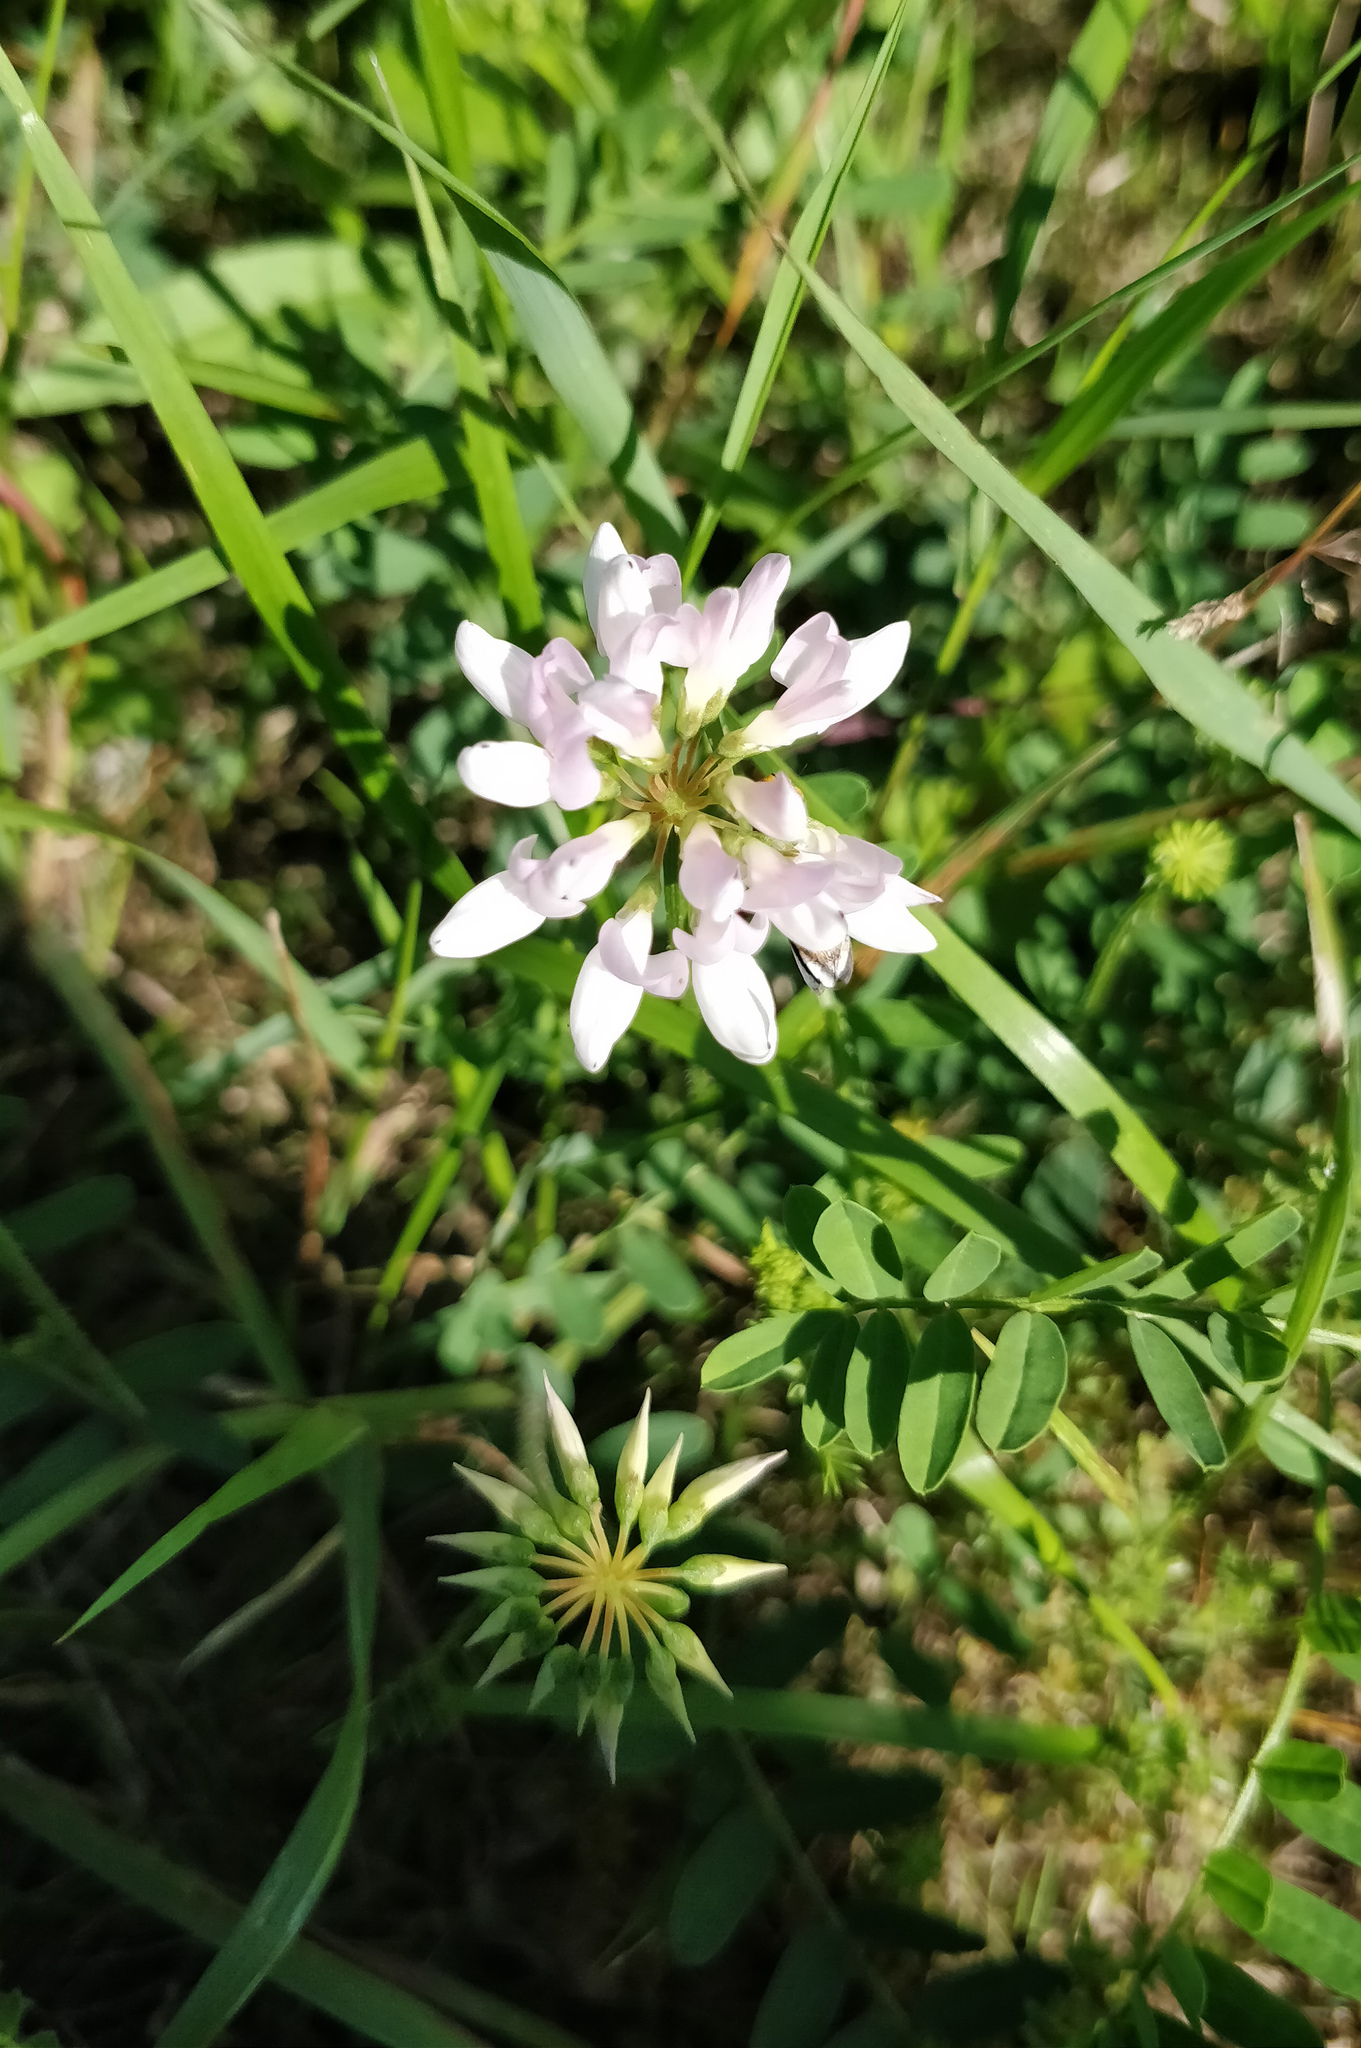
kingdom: Plantae
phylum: Tracheophyta
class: Magnoliopsida
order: Fabales
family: Fabaceae
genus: Coronilla
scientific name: Coronilla varia
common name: Crownvetch
